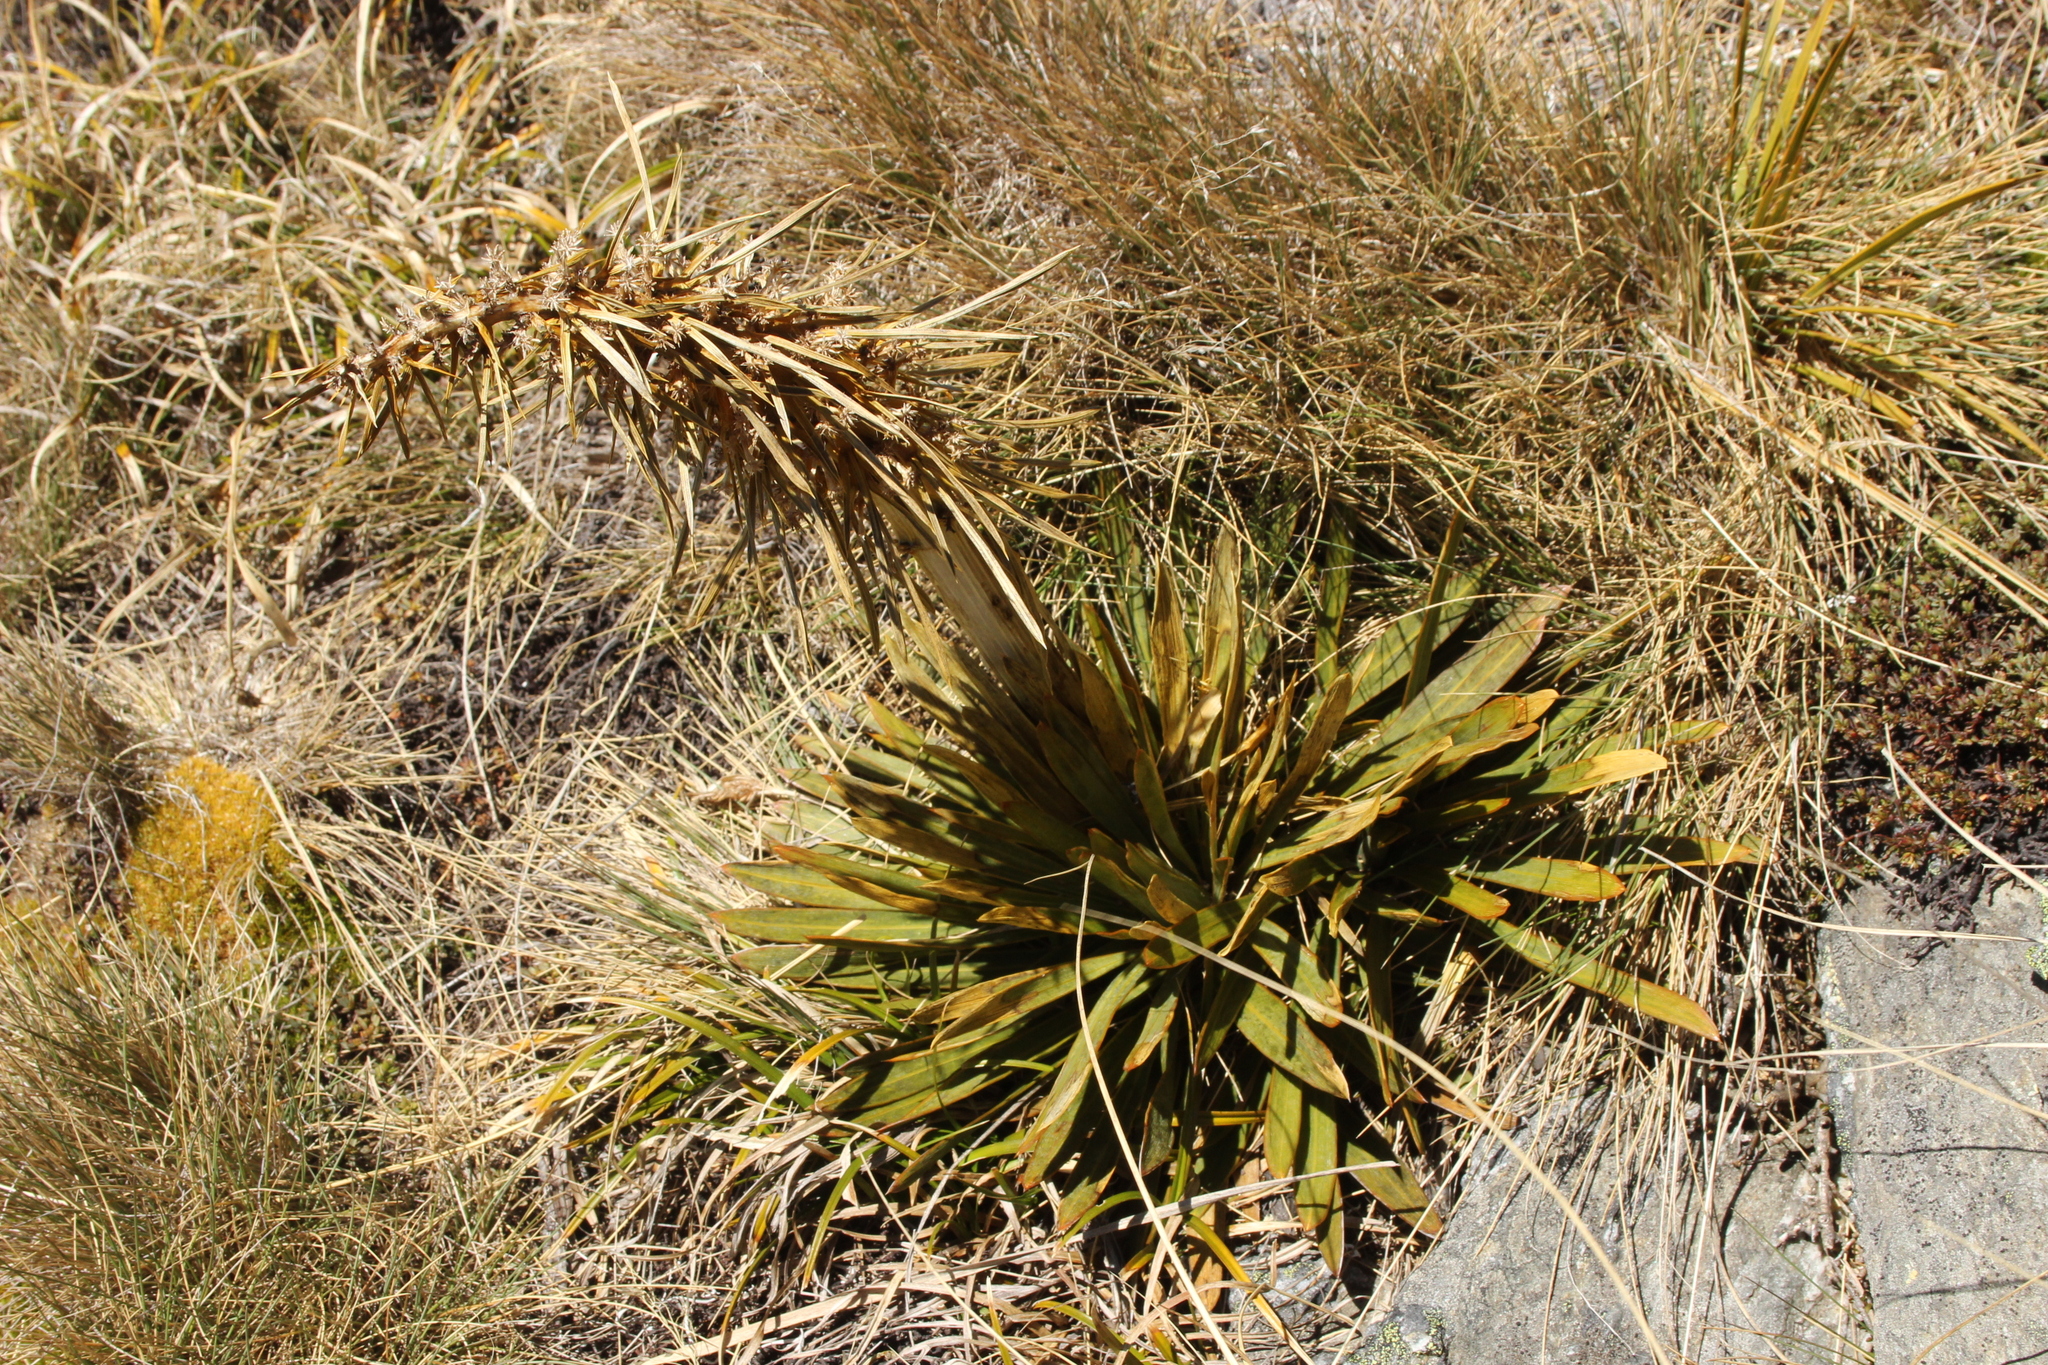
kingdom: Plantae
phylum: Tracheophyta
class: Magnoliopsida
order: Apiales
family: Apiaceae
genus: Aciphylla
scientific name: Aciphylla kirkii
